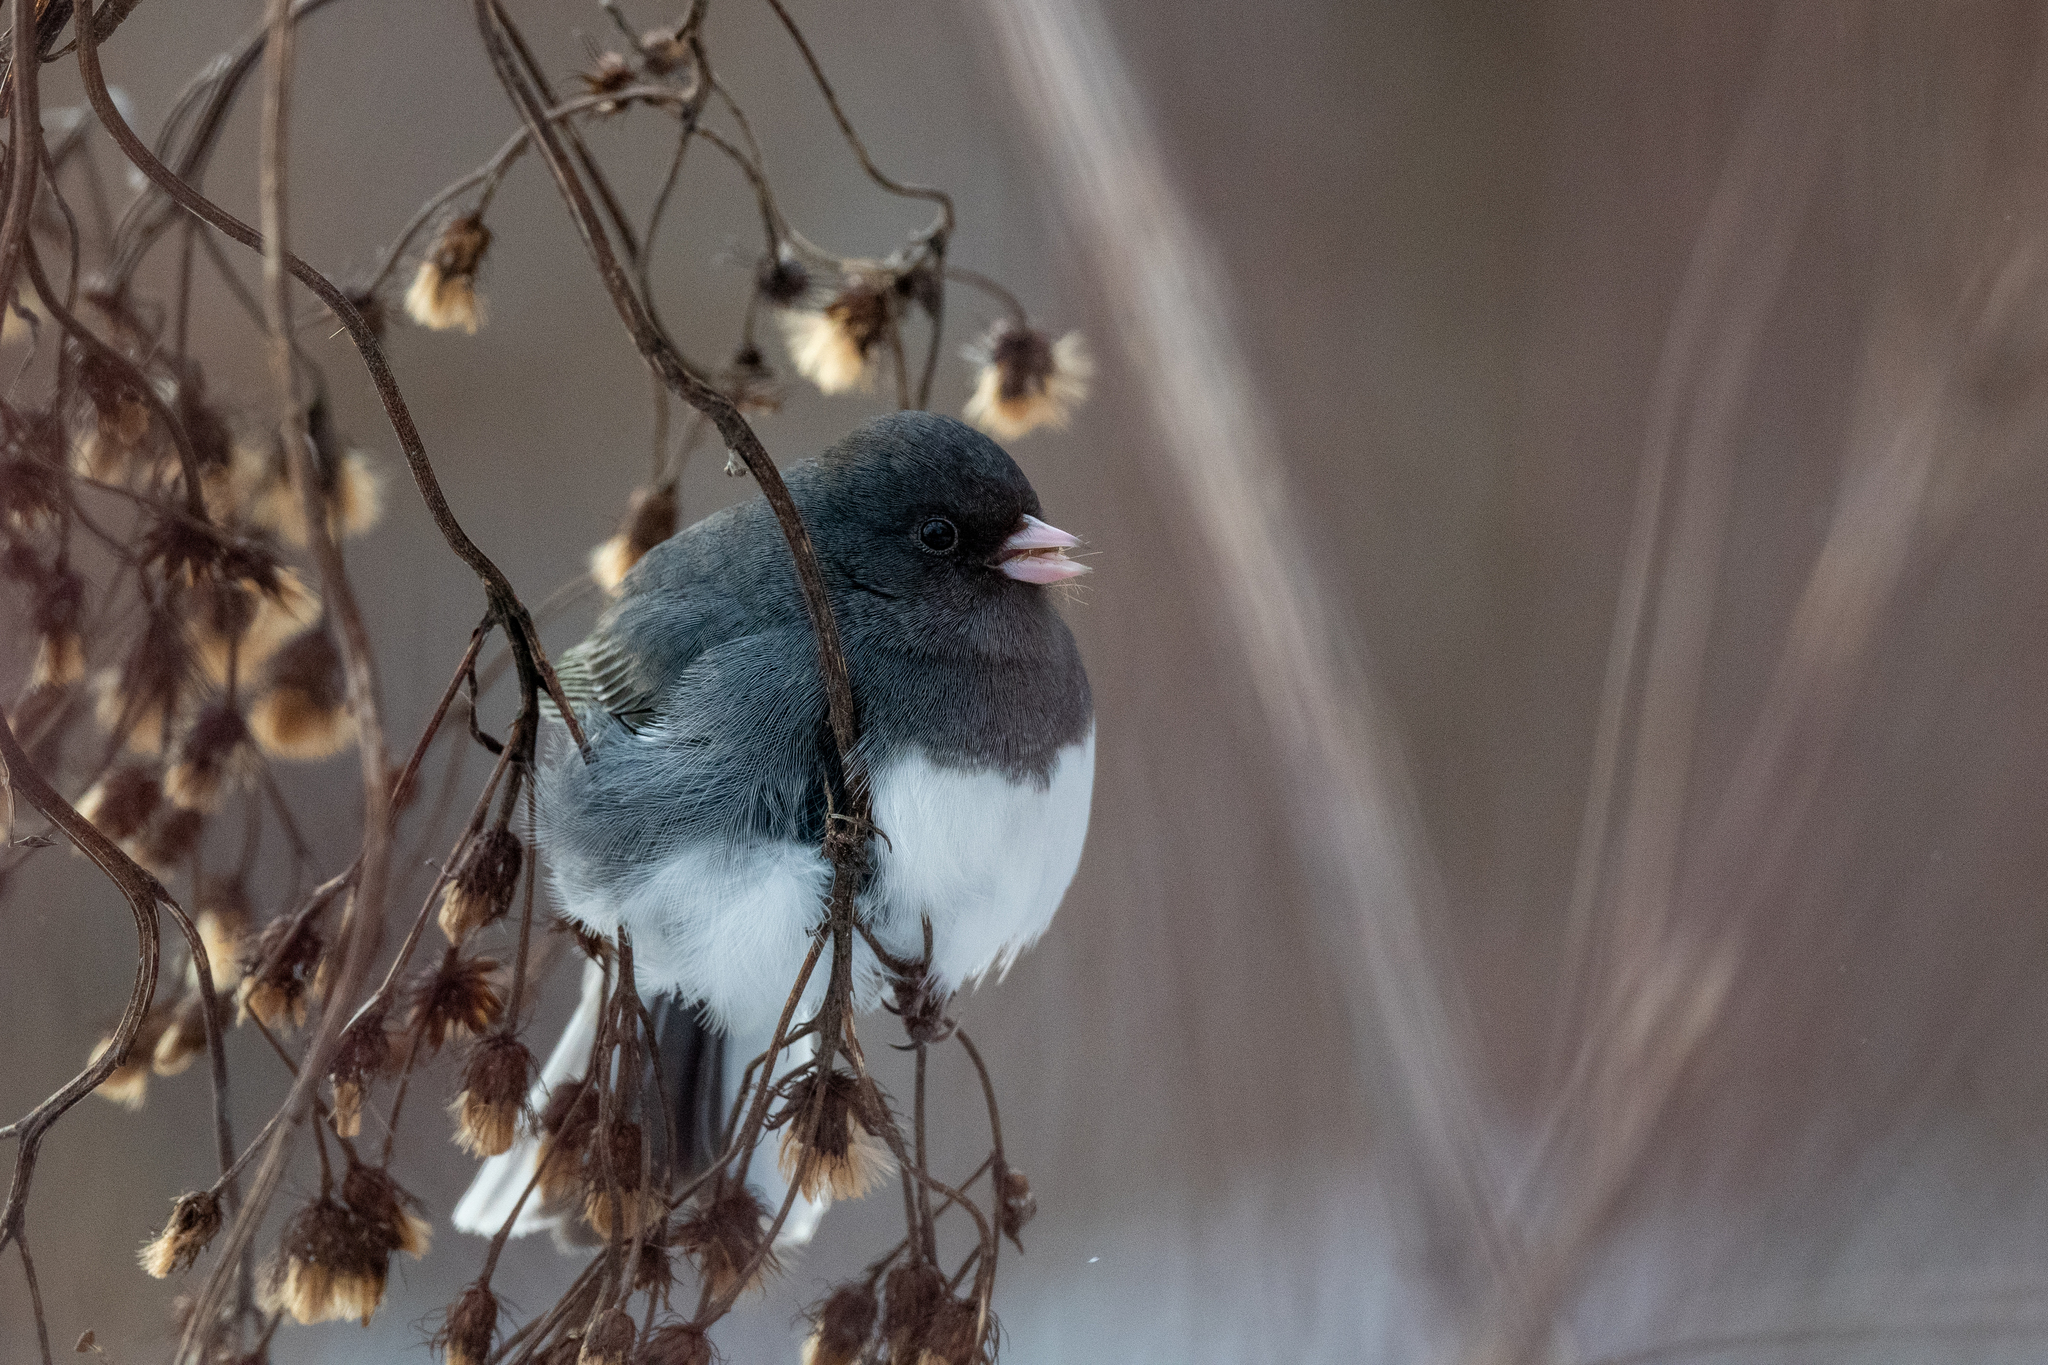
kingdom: Animalia
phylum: Chordata
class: Aves
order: Passeriformes
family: Passerellidae
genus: Junco
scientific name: Junco hyemalis
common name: Dark-eyed junco
